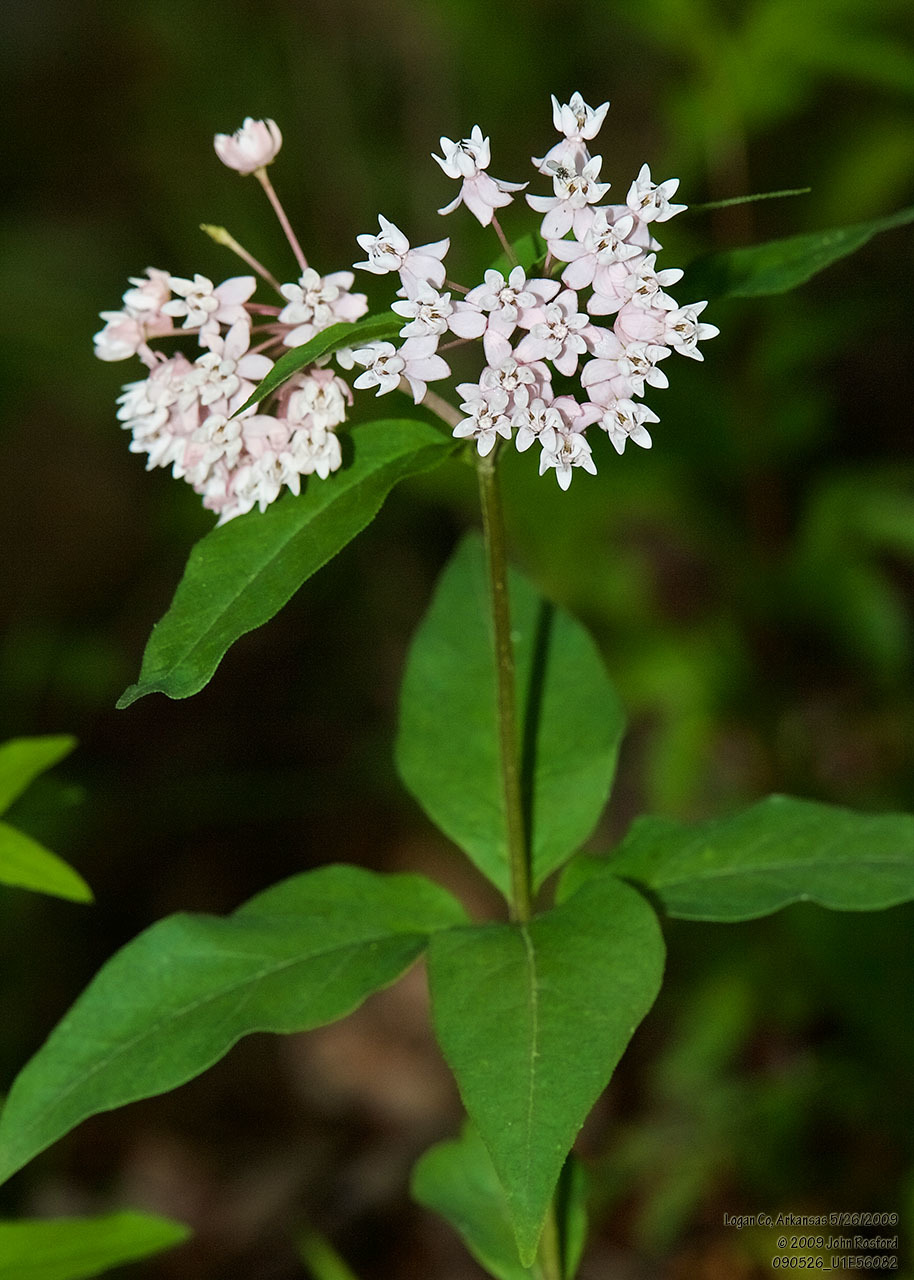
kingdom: Plantae
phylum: Tracheophyta
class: Magnoliopsida
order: Gentianales
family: Apocynaceae
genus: Asclepias
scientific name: Asclepias quadrifolia
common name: Whorled milkweed
